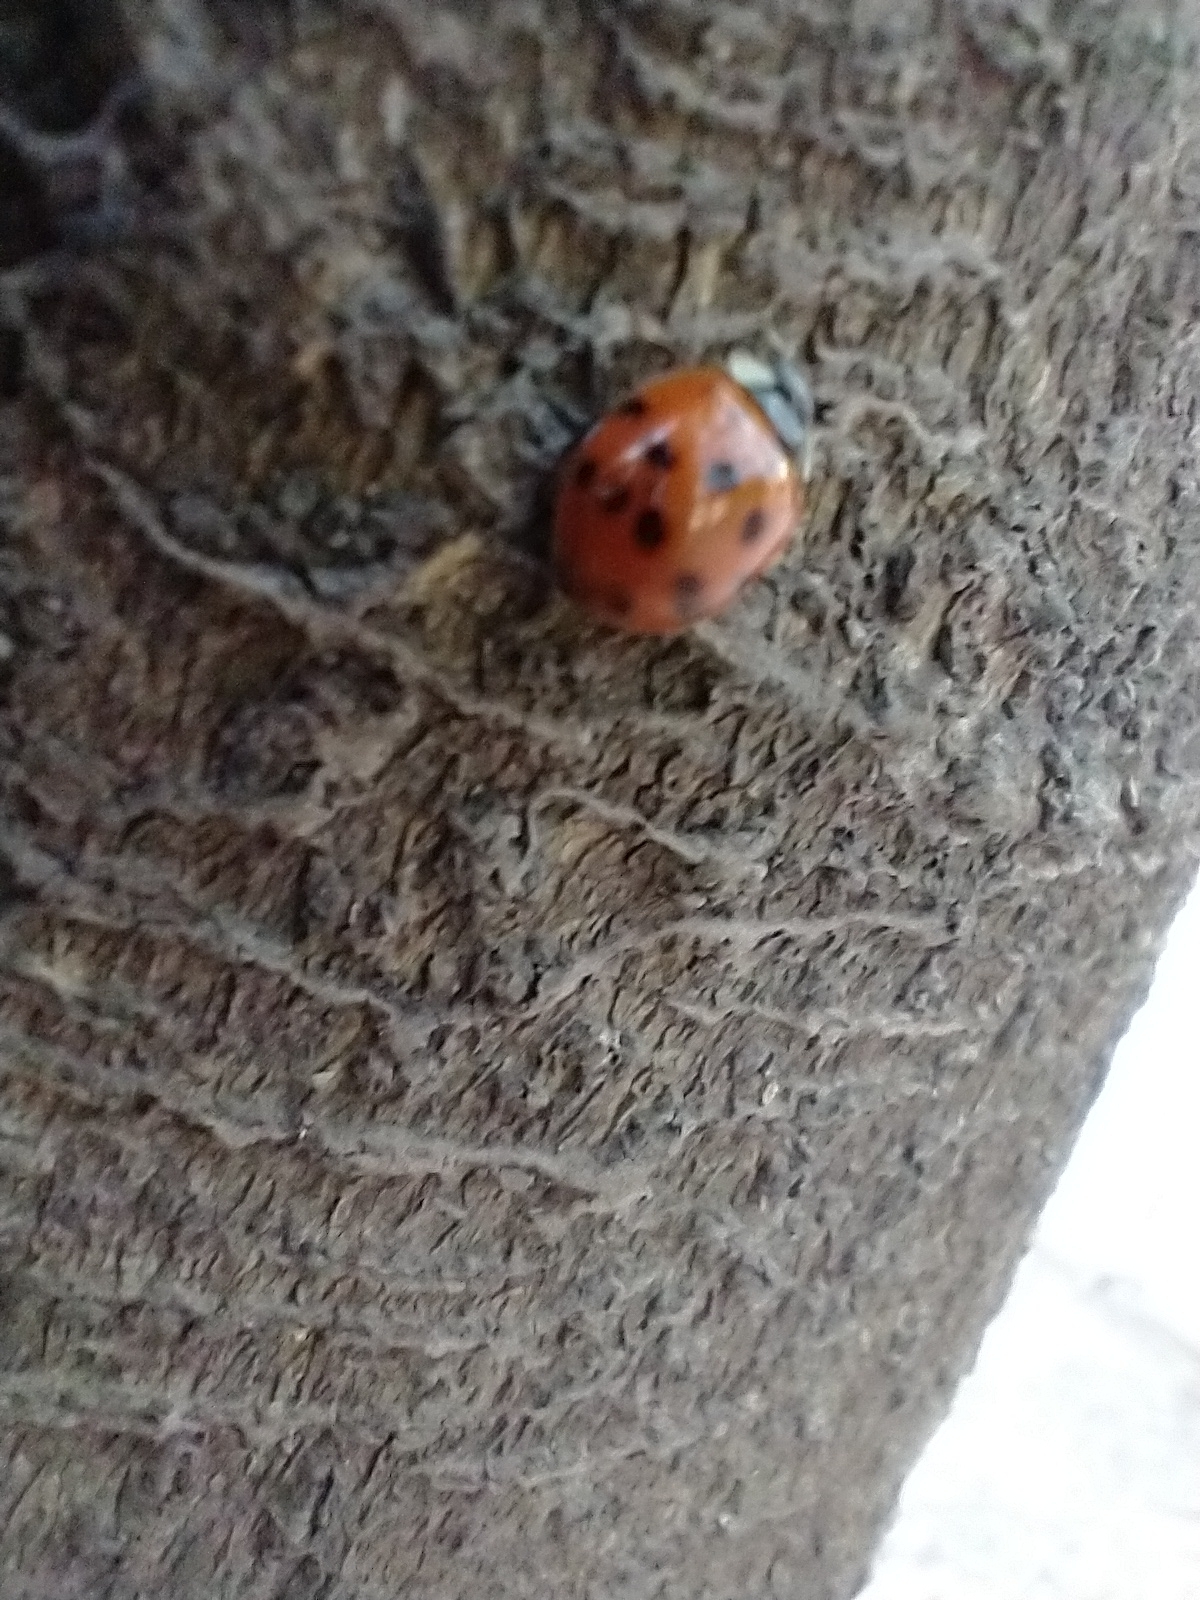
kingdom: Animalia
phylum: Arthropoda
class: Insecta
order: Coleoptera
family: Coccinellidae
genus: Harmonia
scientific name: Harmonia axyridis
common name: Harlequin ladybird
